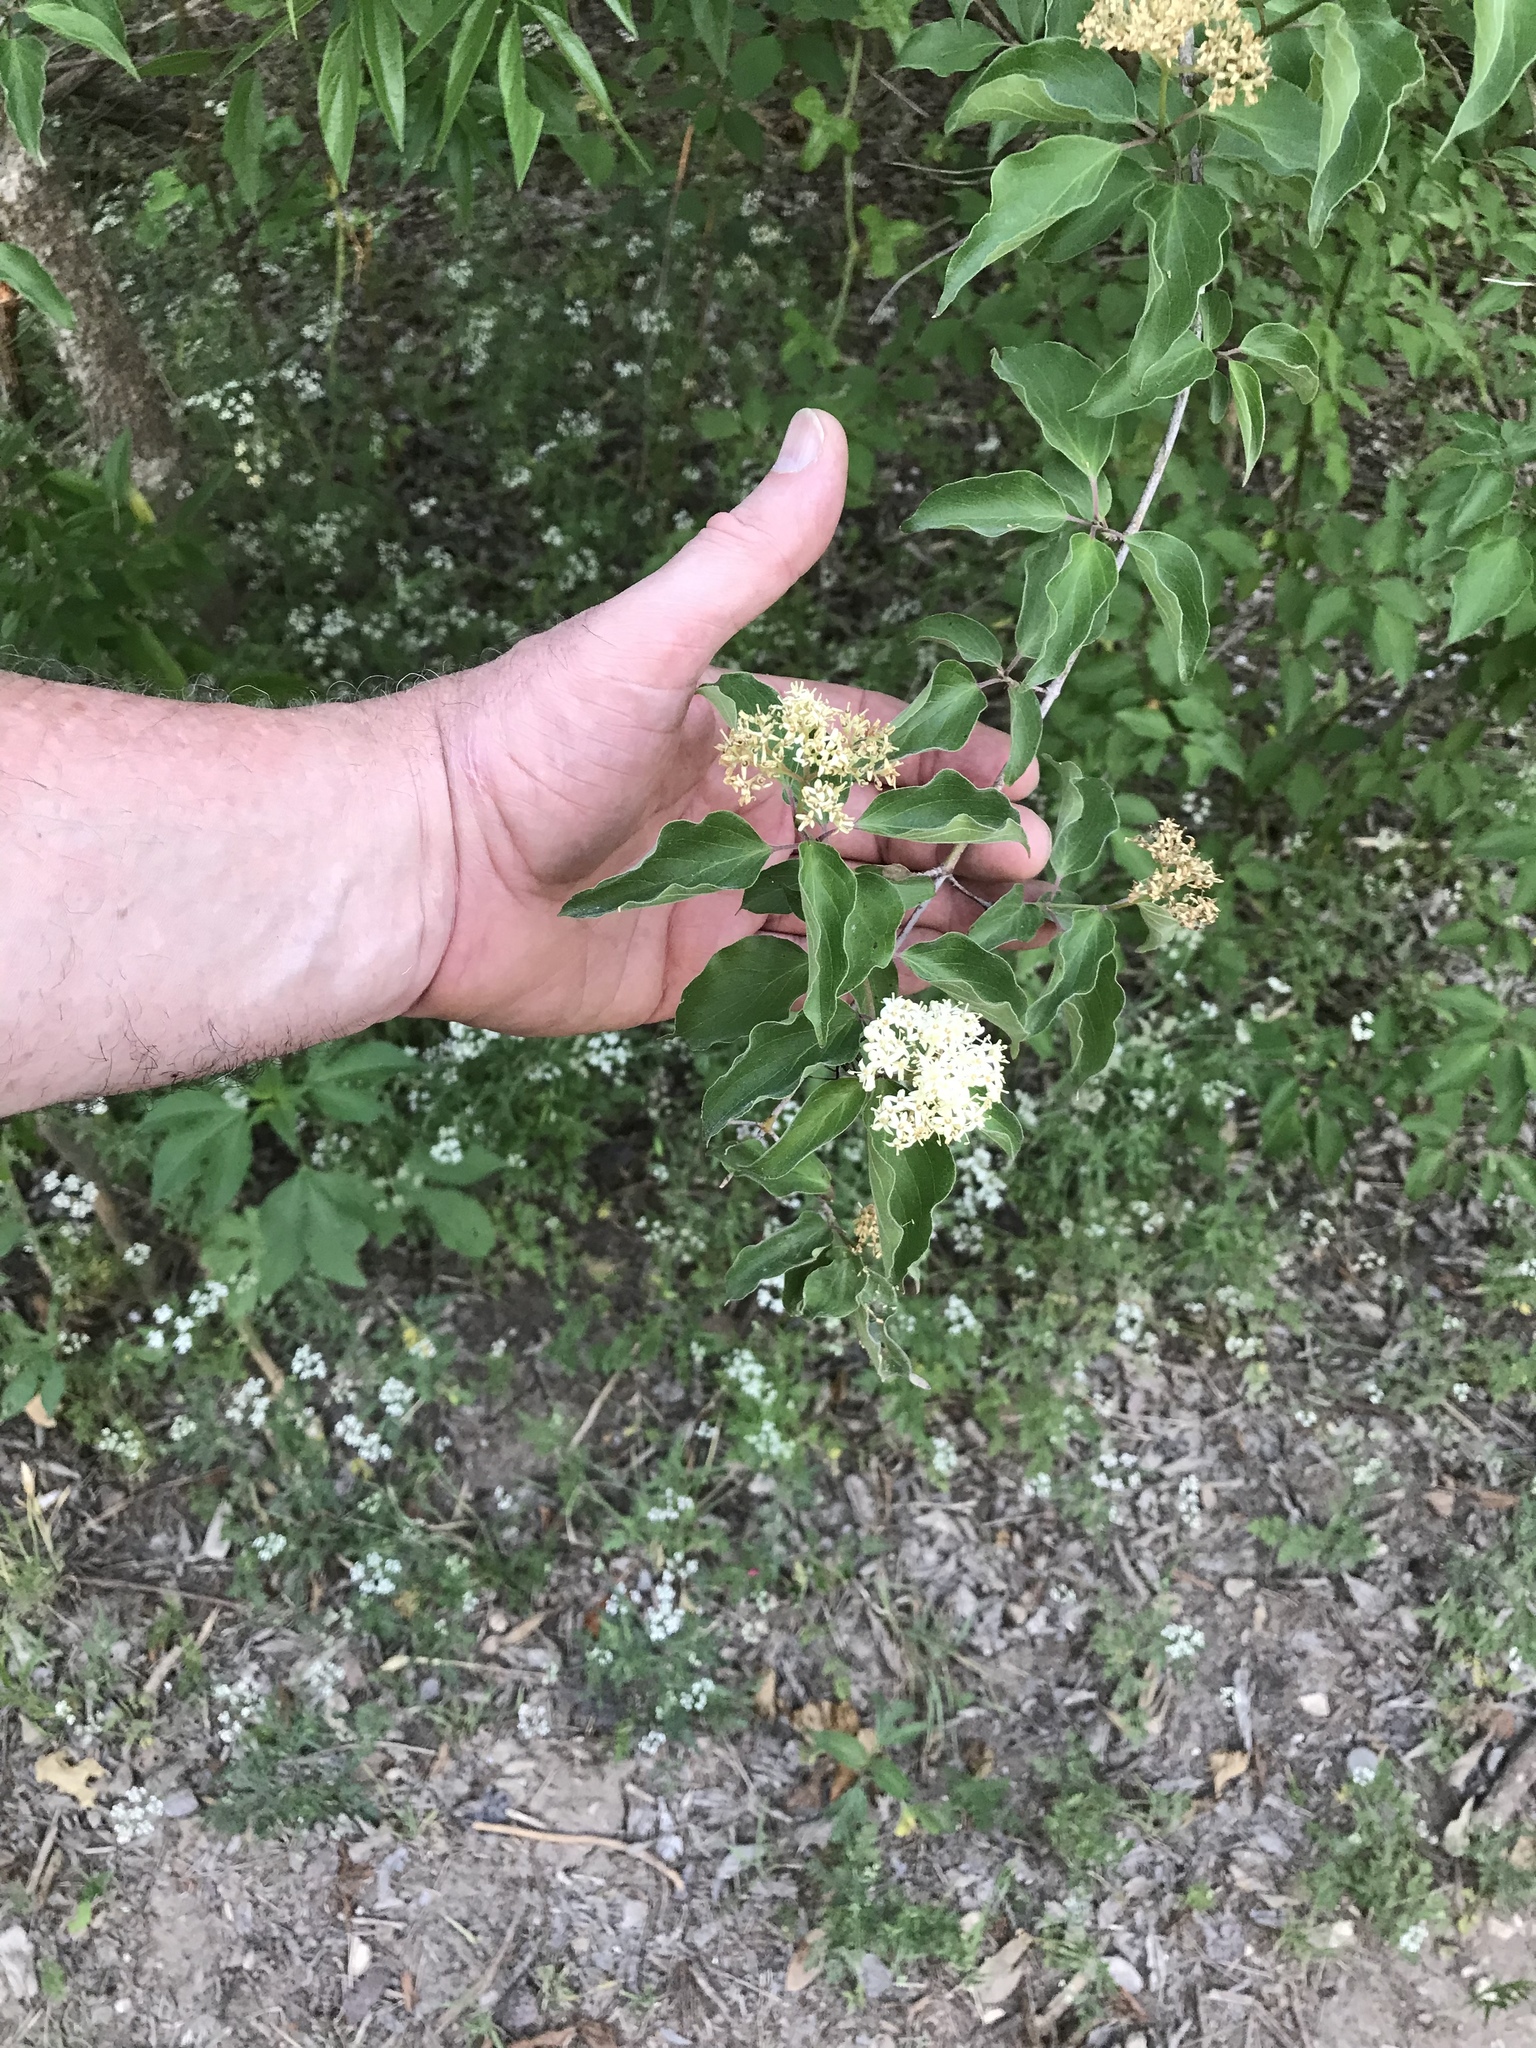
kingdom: Plantae
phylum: Tracheophyta
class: Magnoliopsida
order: Cornales
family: Cornaceae
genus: Cornus
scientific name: Cornus drummondii
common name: Rough-leaf dogwood
